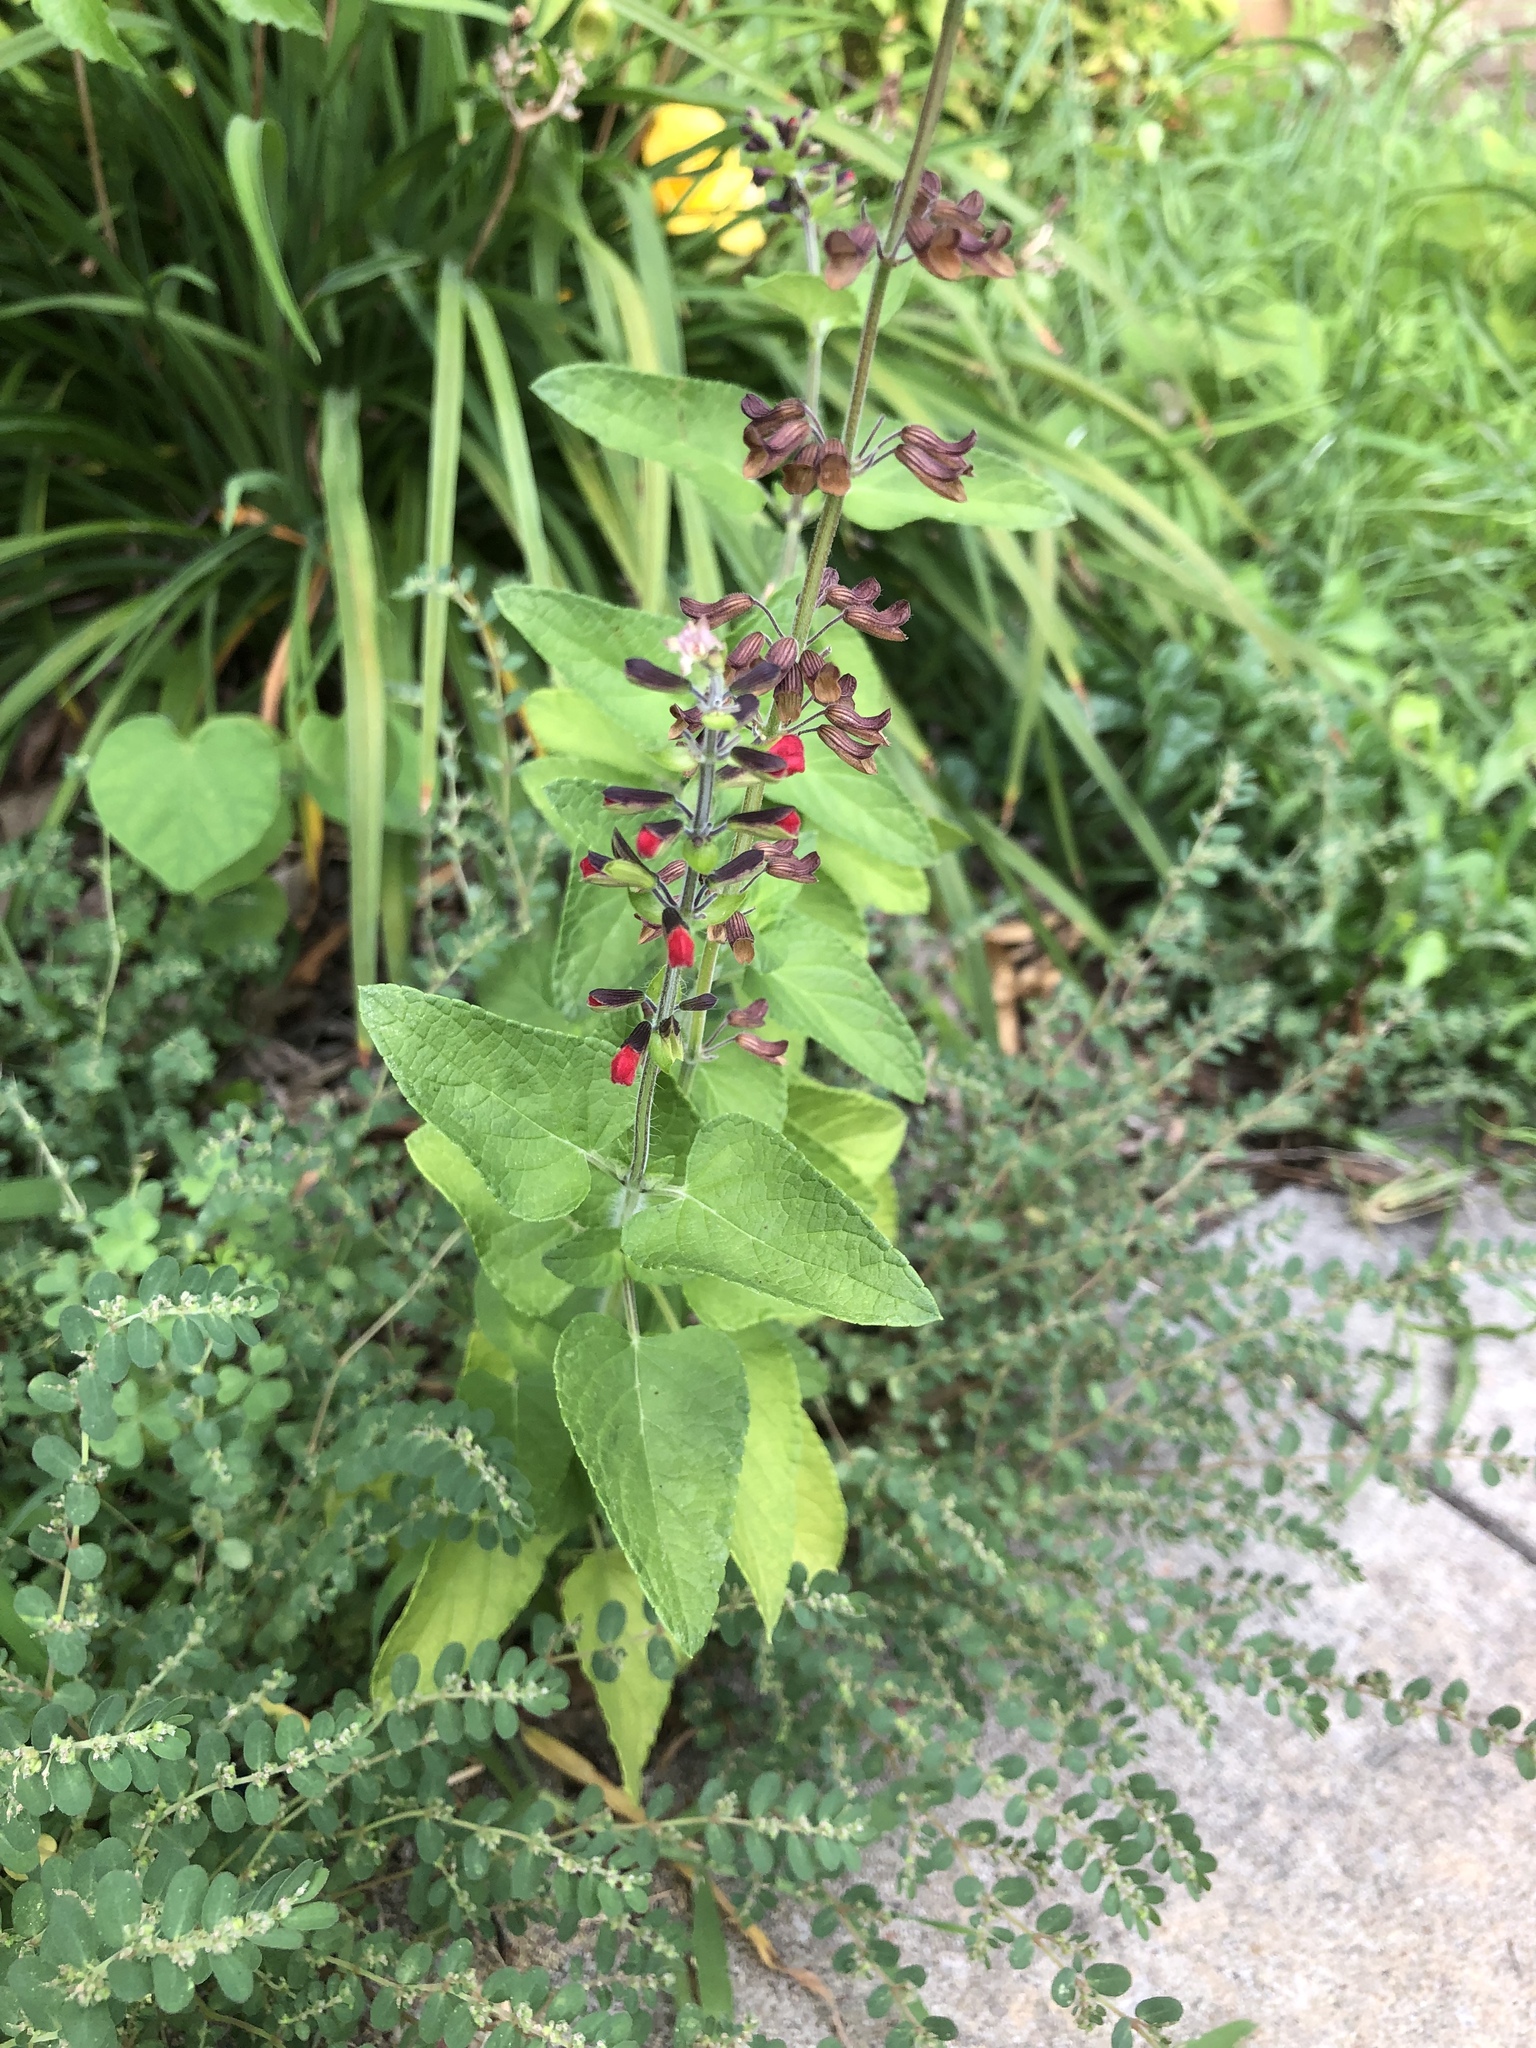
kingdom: Plantae
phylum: Tracheophyta
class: Magnoliopsida
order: Lamiales
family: Lamiaceae
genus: Salvia
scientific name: Salvia coccinea
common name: Blood sage
